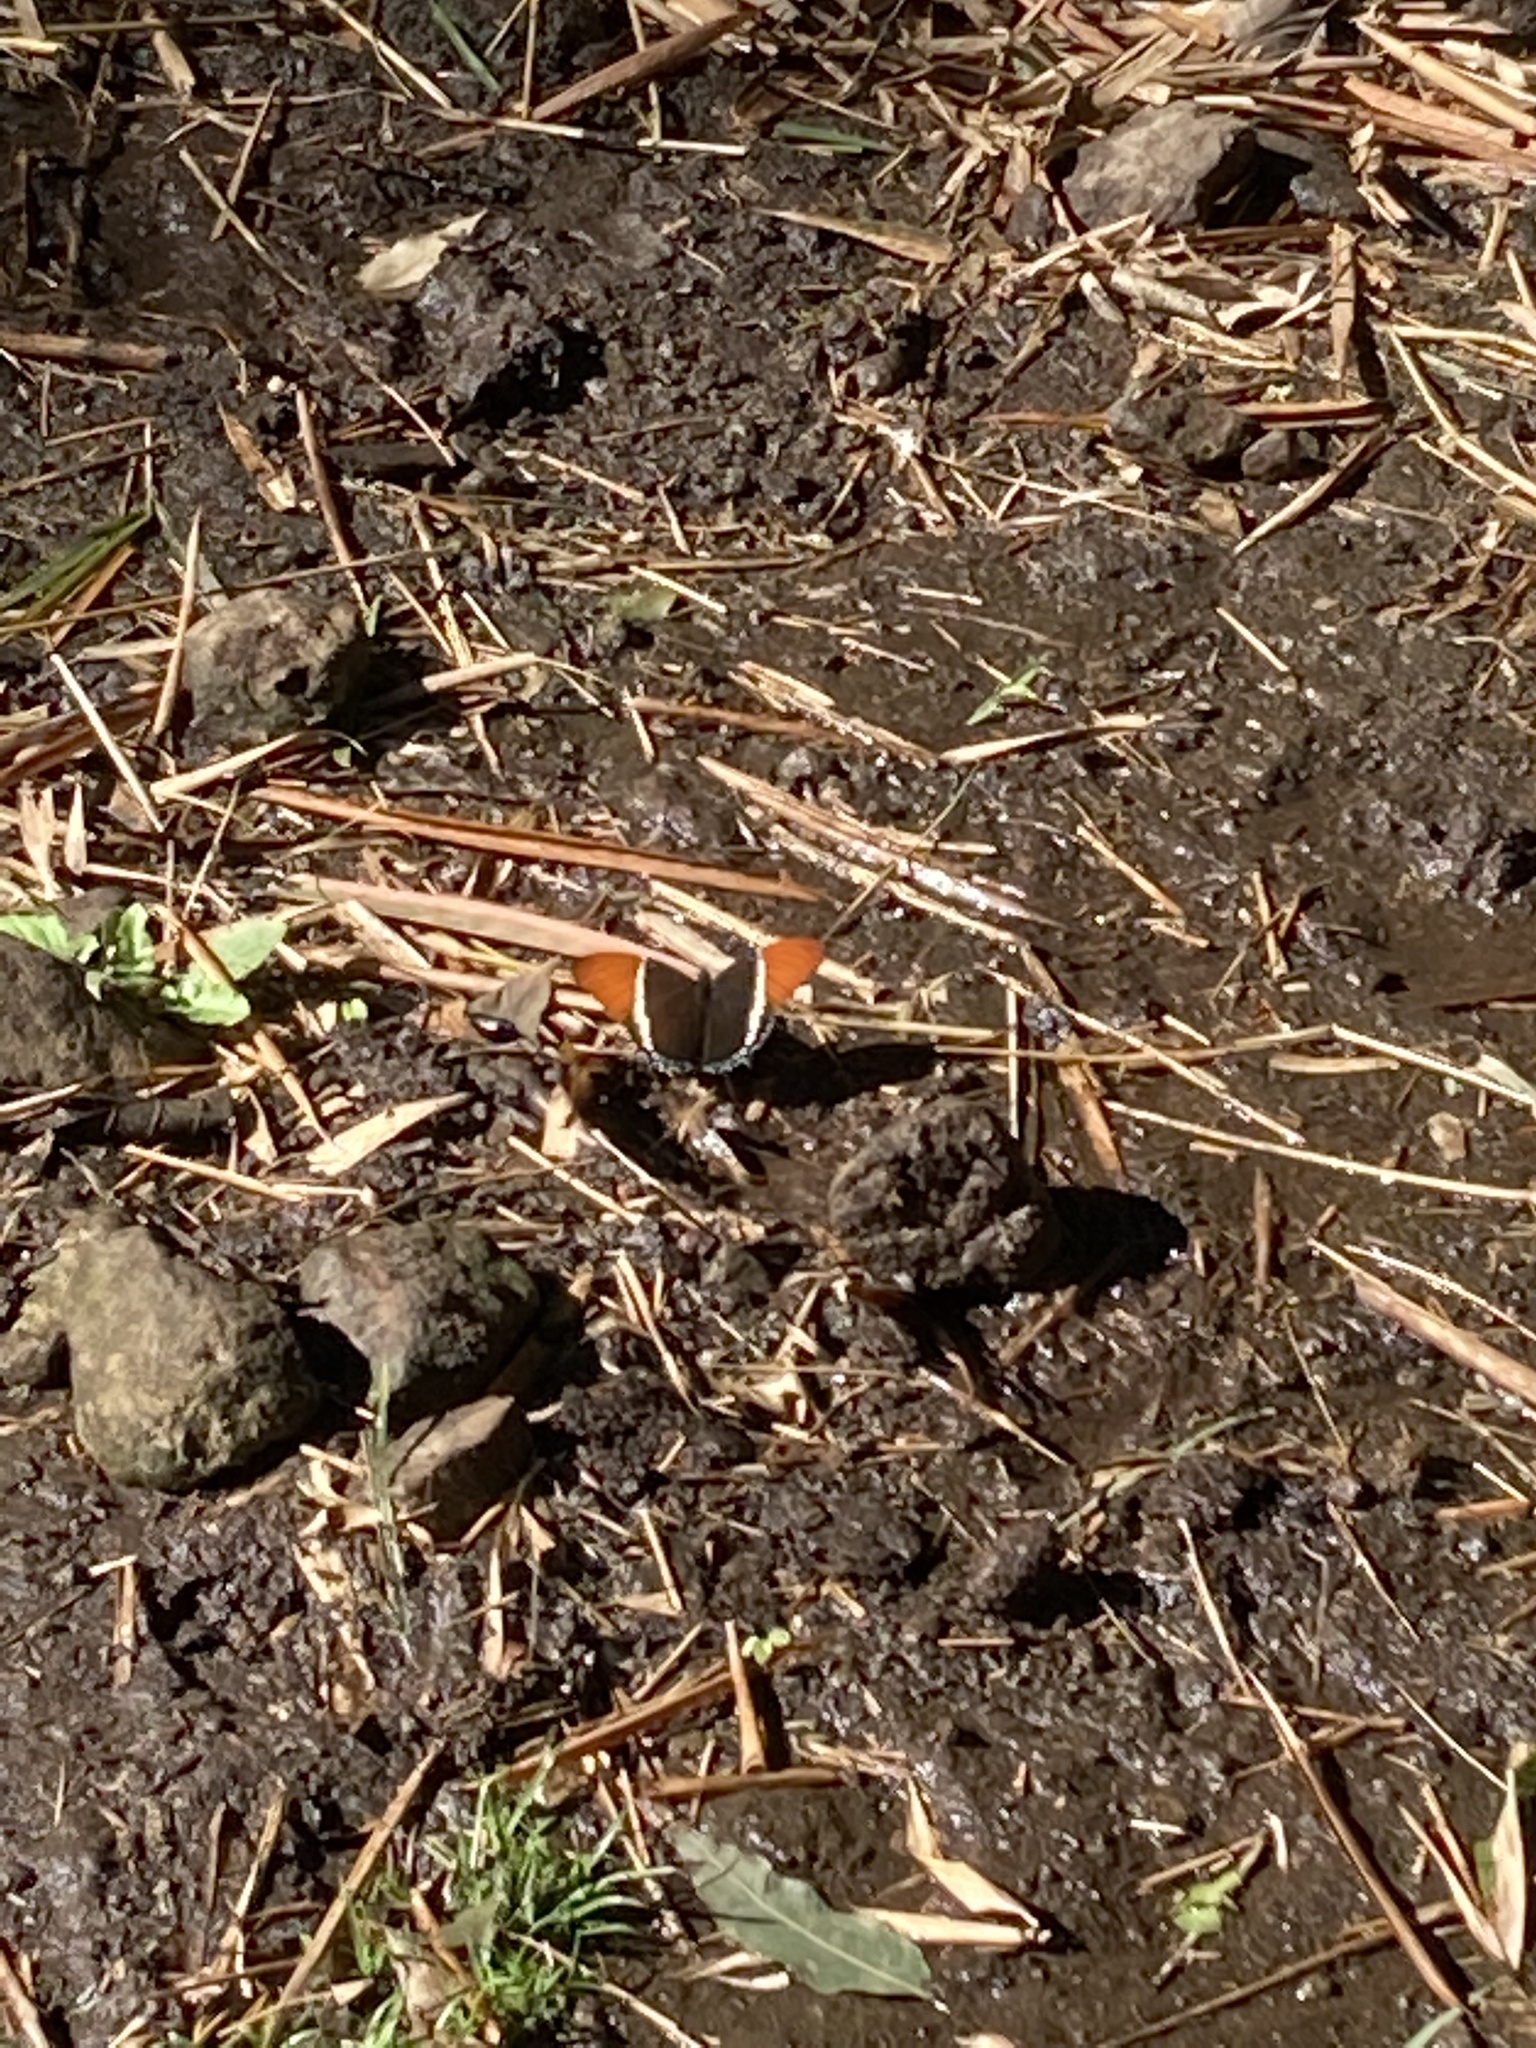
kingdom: Animalia
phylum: Arthropoda
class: Insecta
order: Lepidoptera
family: Nymphalidae
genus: Siproeta
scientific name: Siproeta epaphus
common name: Rusty-tipped page
